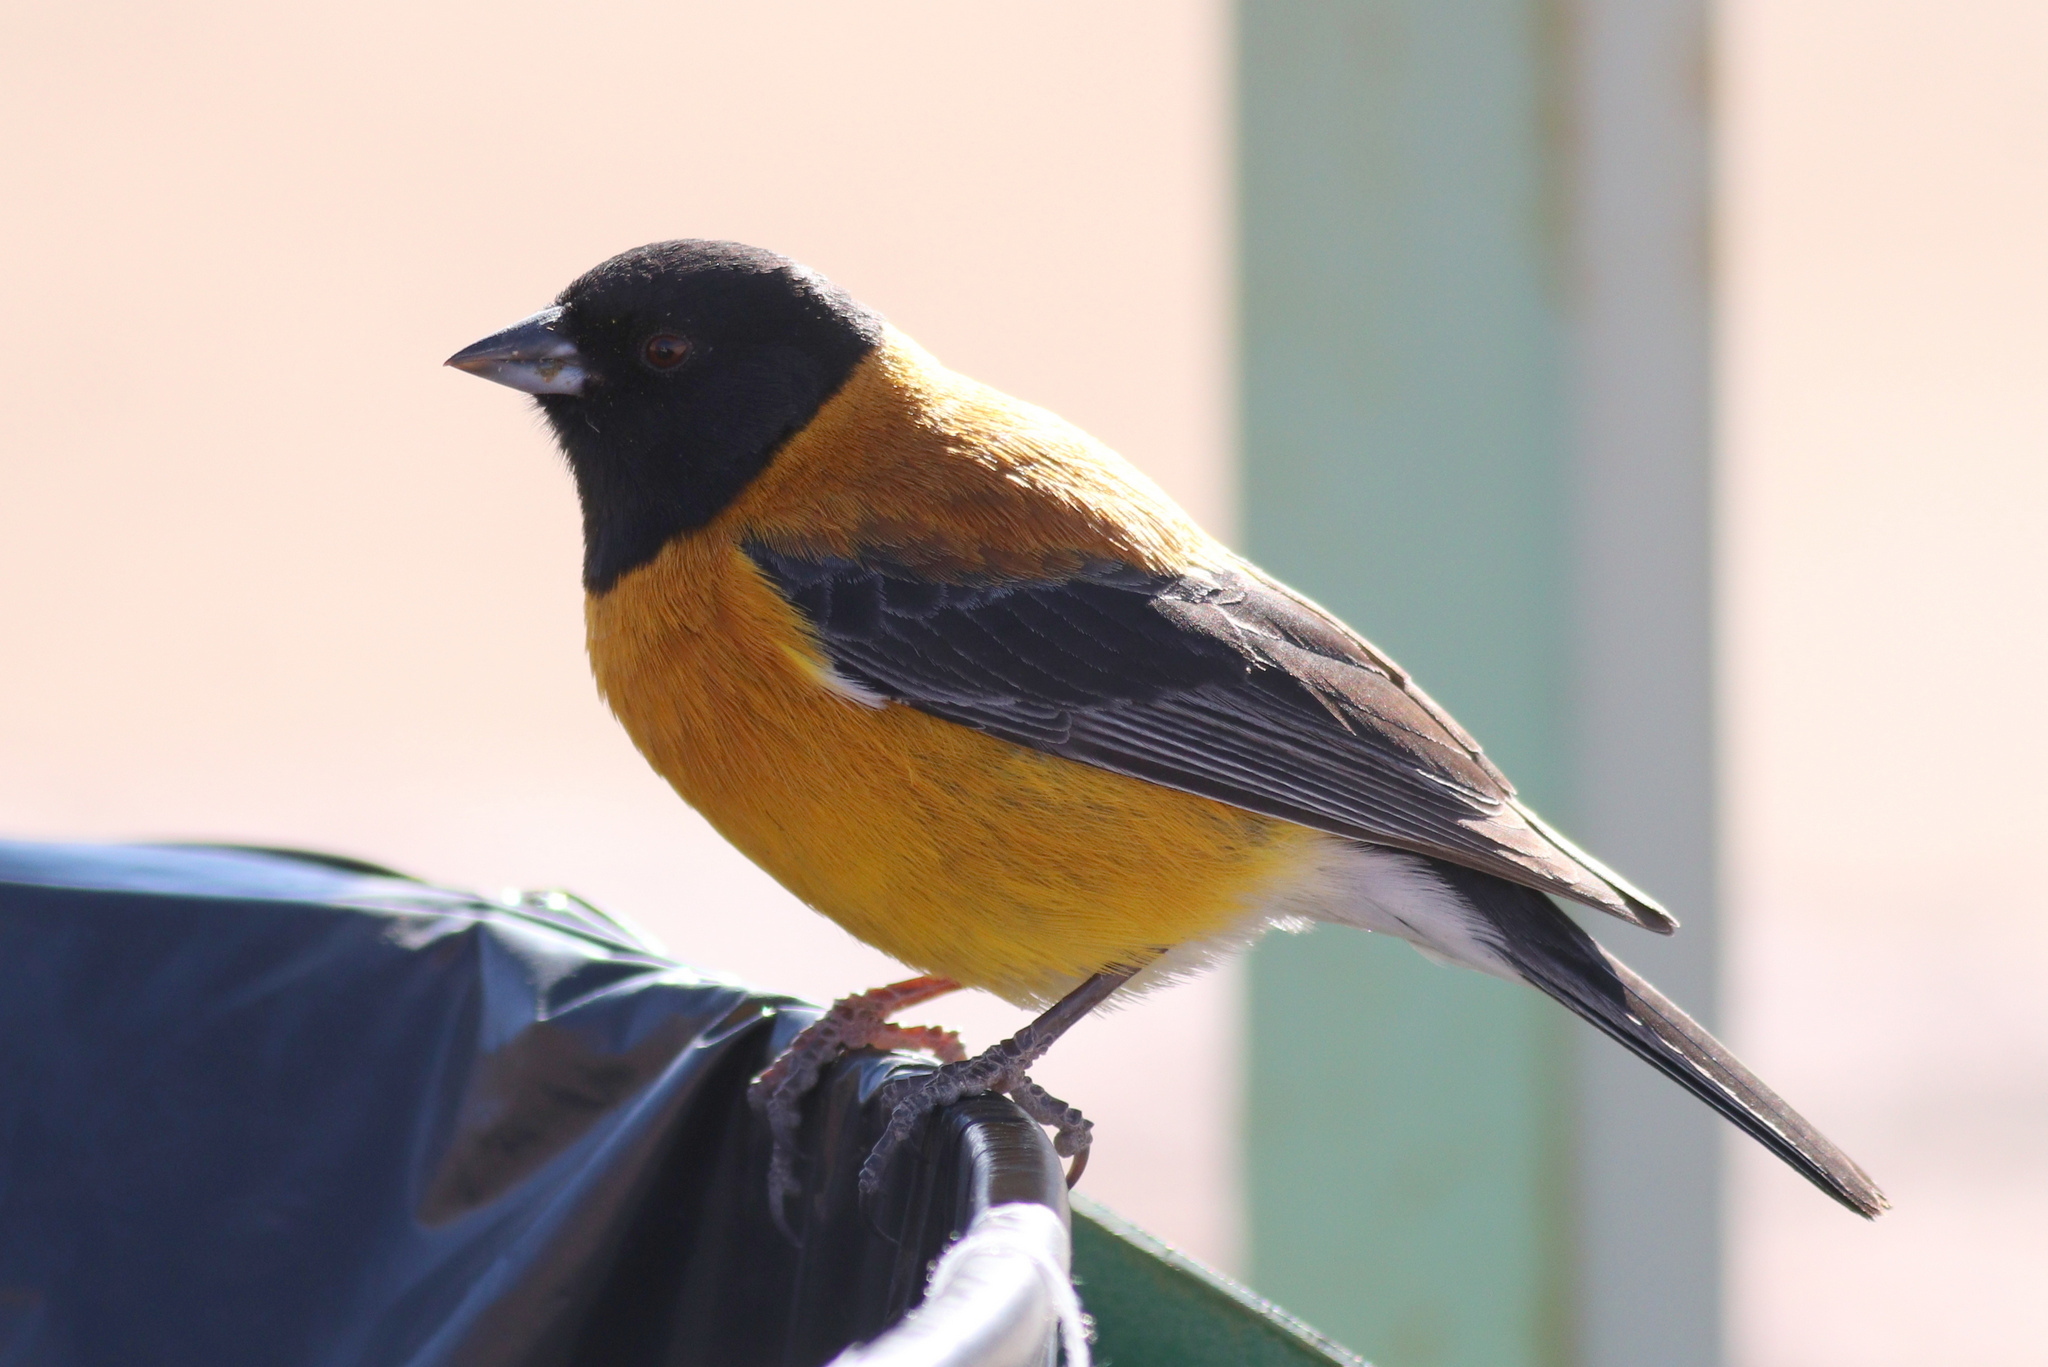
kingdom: Animalia
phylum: Chordata
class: Aves
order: Passeriformes
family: Thraupidae
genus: Phrygilus
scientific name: Phrygilus atriceps
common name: Black-hooded sierra finch
